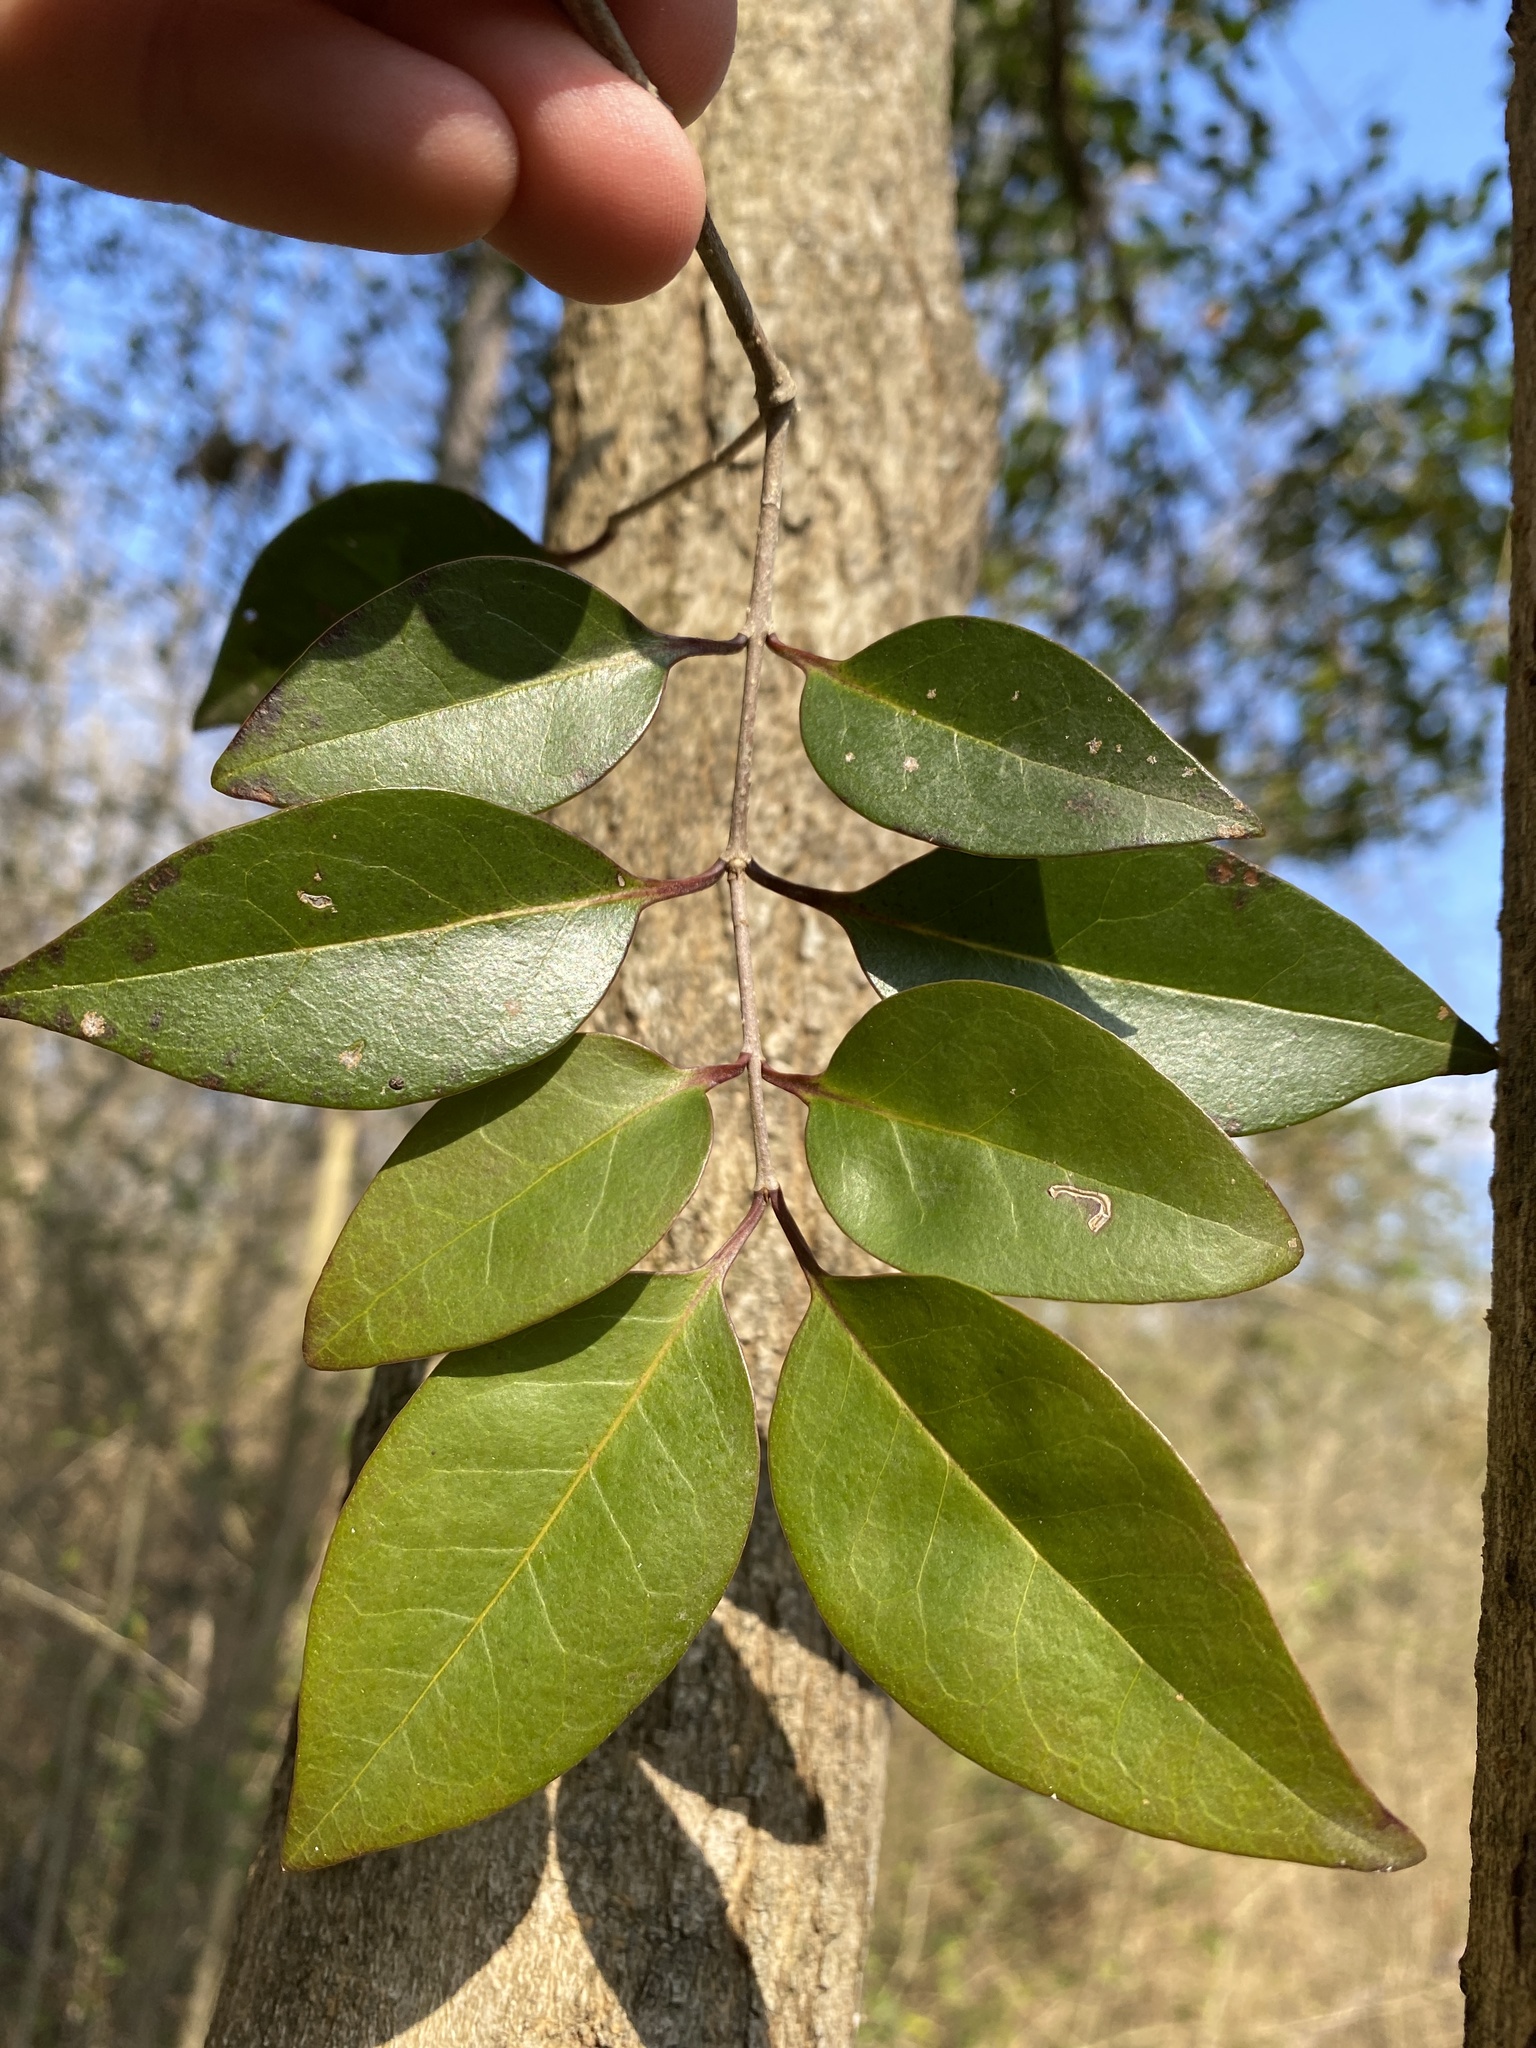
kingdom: Plantae
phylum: Tracheophyta
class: Magnoliopsida
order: Lamiales
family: Oleaceae
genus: Ligustrum
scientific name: Ligustrum lucidum
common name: Glossy privet
